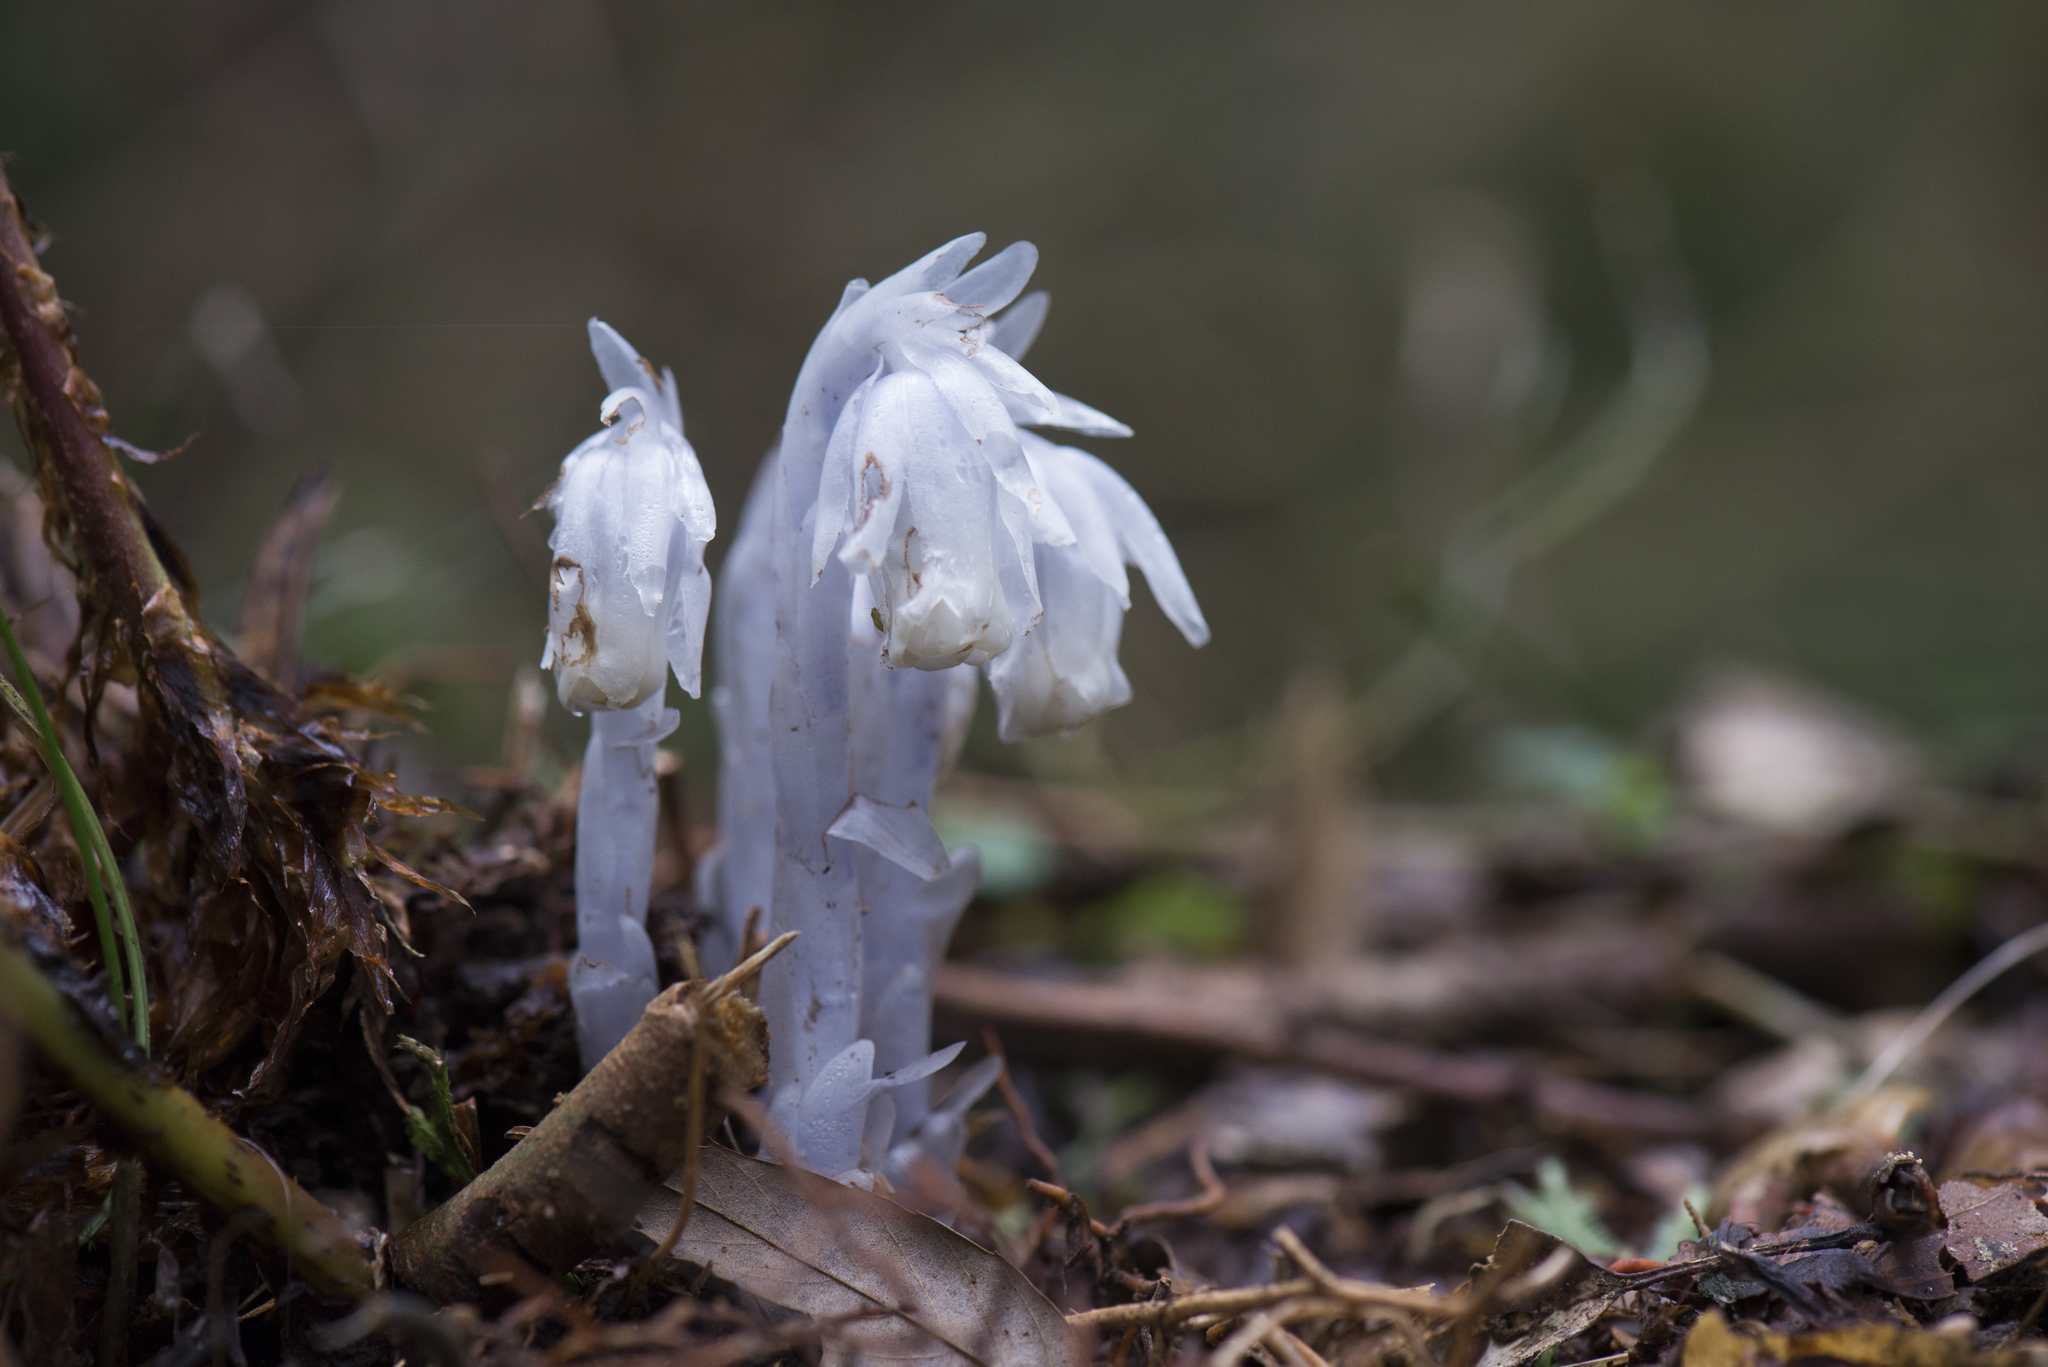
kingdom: Plantae
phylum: Tracheophyta
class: Magnoliopsida
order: Ericales
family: Ericaceae
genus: Monotropastrum
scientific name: Monotropastrum humile
